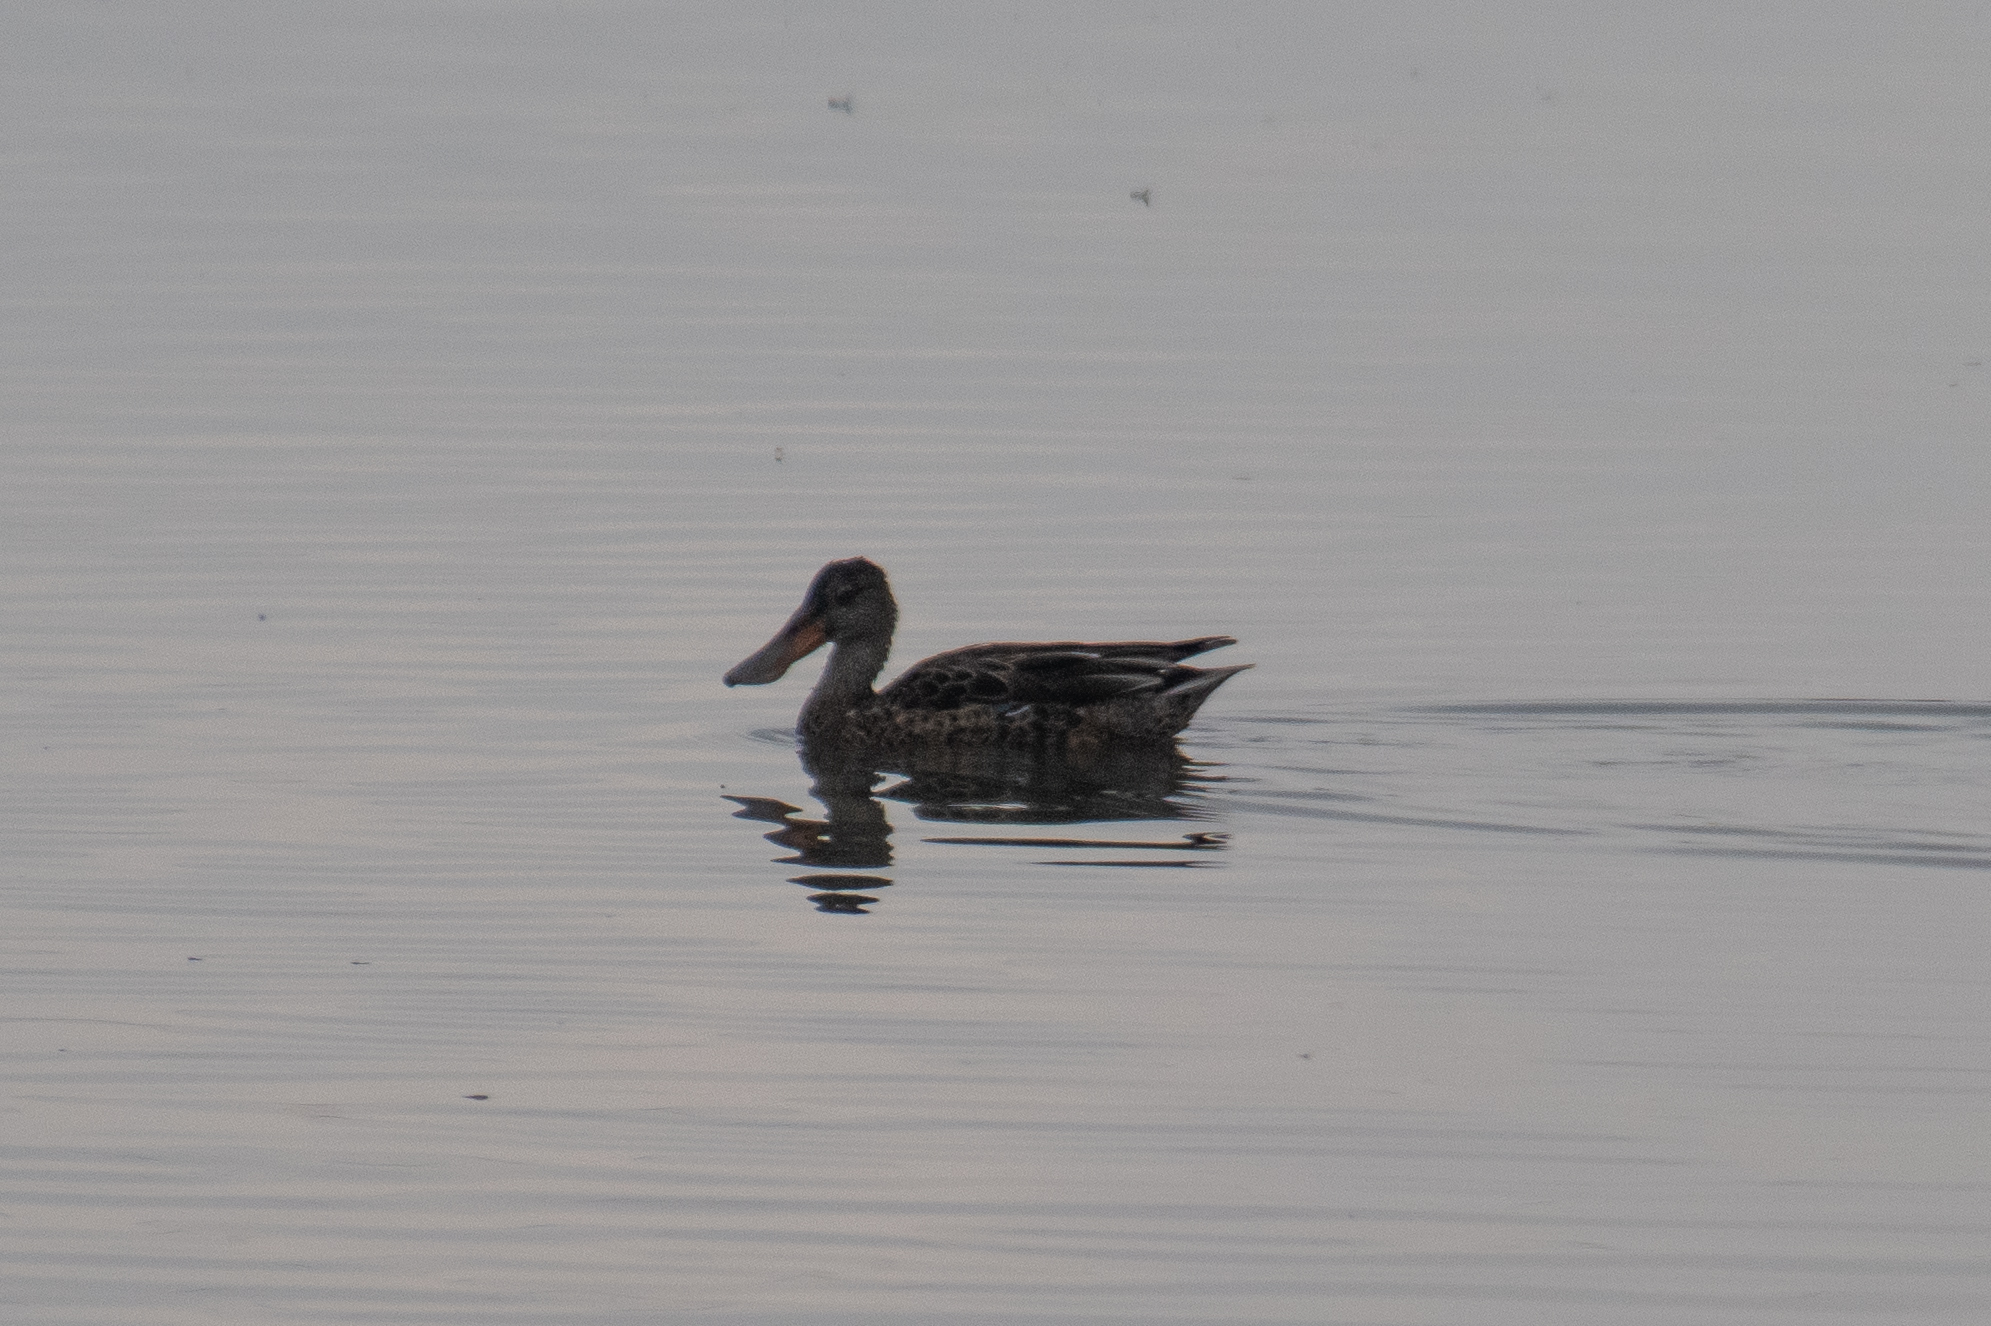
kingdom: Animalia
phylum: Chordata
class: Aves
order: Anseriformes
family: Anatidae
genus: Spatula
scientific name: Spatula clypeata
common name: Northern shoveler
